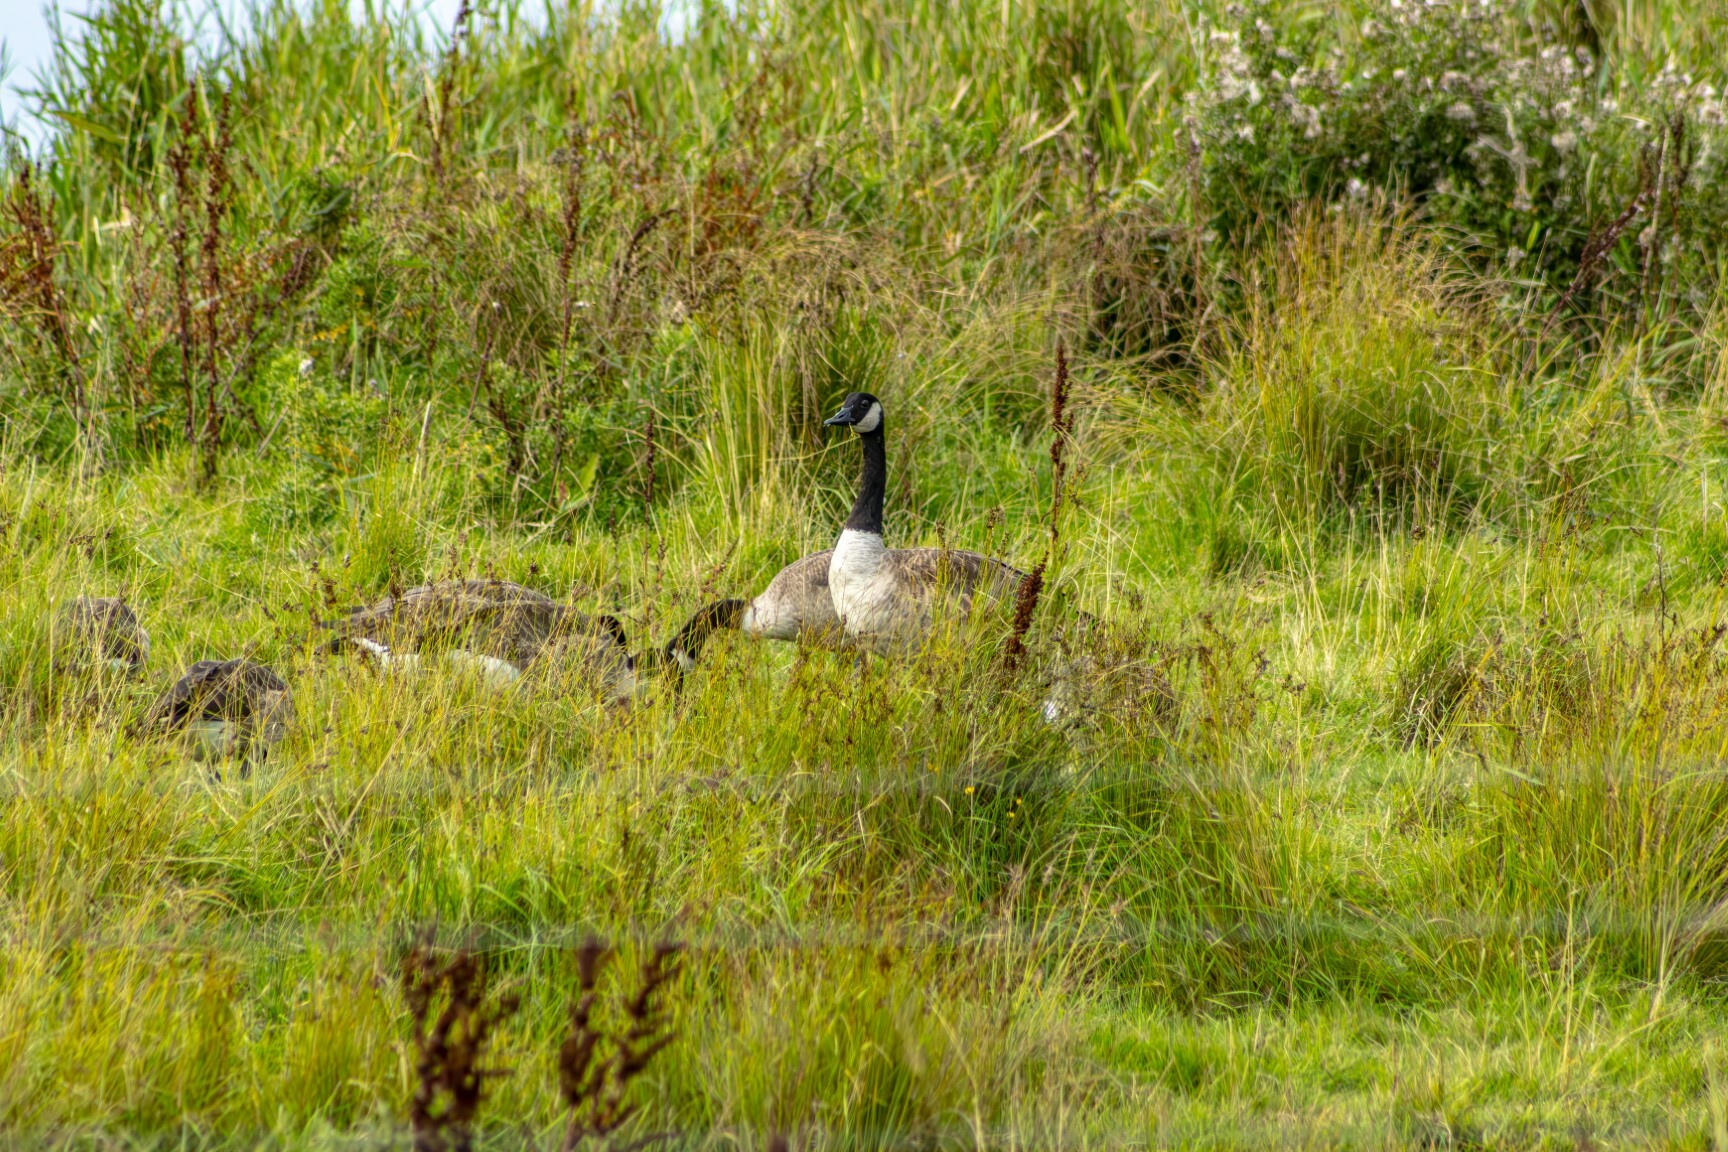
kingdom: Animalia
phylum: Chordata
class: Aves
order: Anseriformes
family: Anatidae
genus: Branta
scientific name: Branta canadensis
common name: Canada goose
